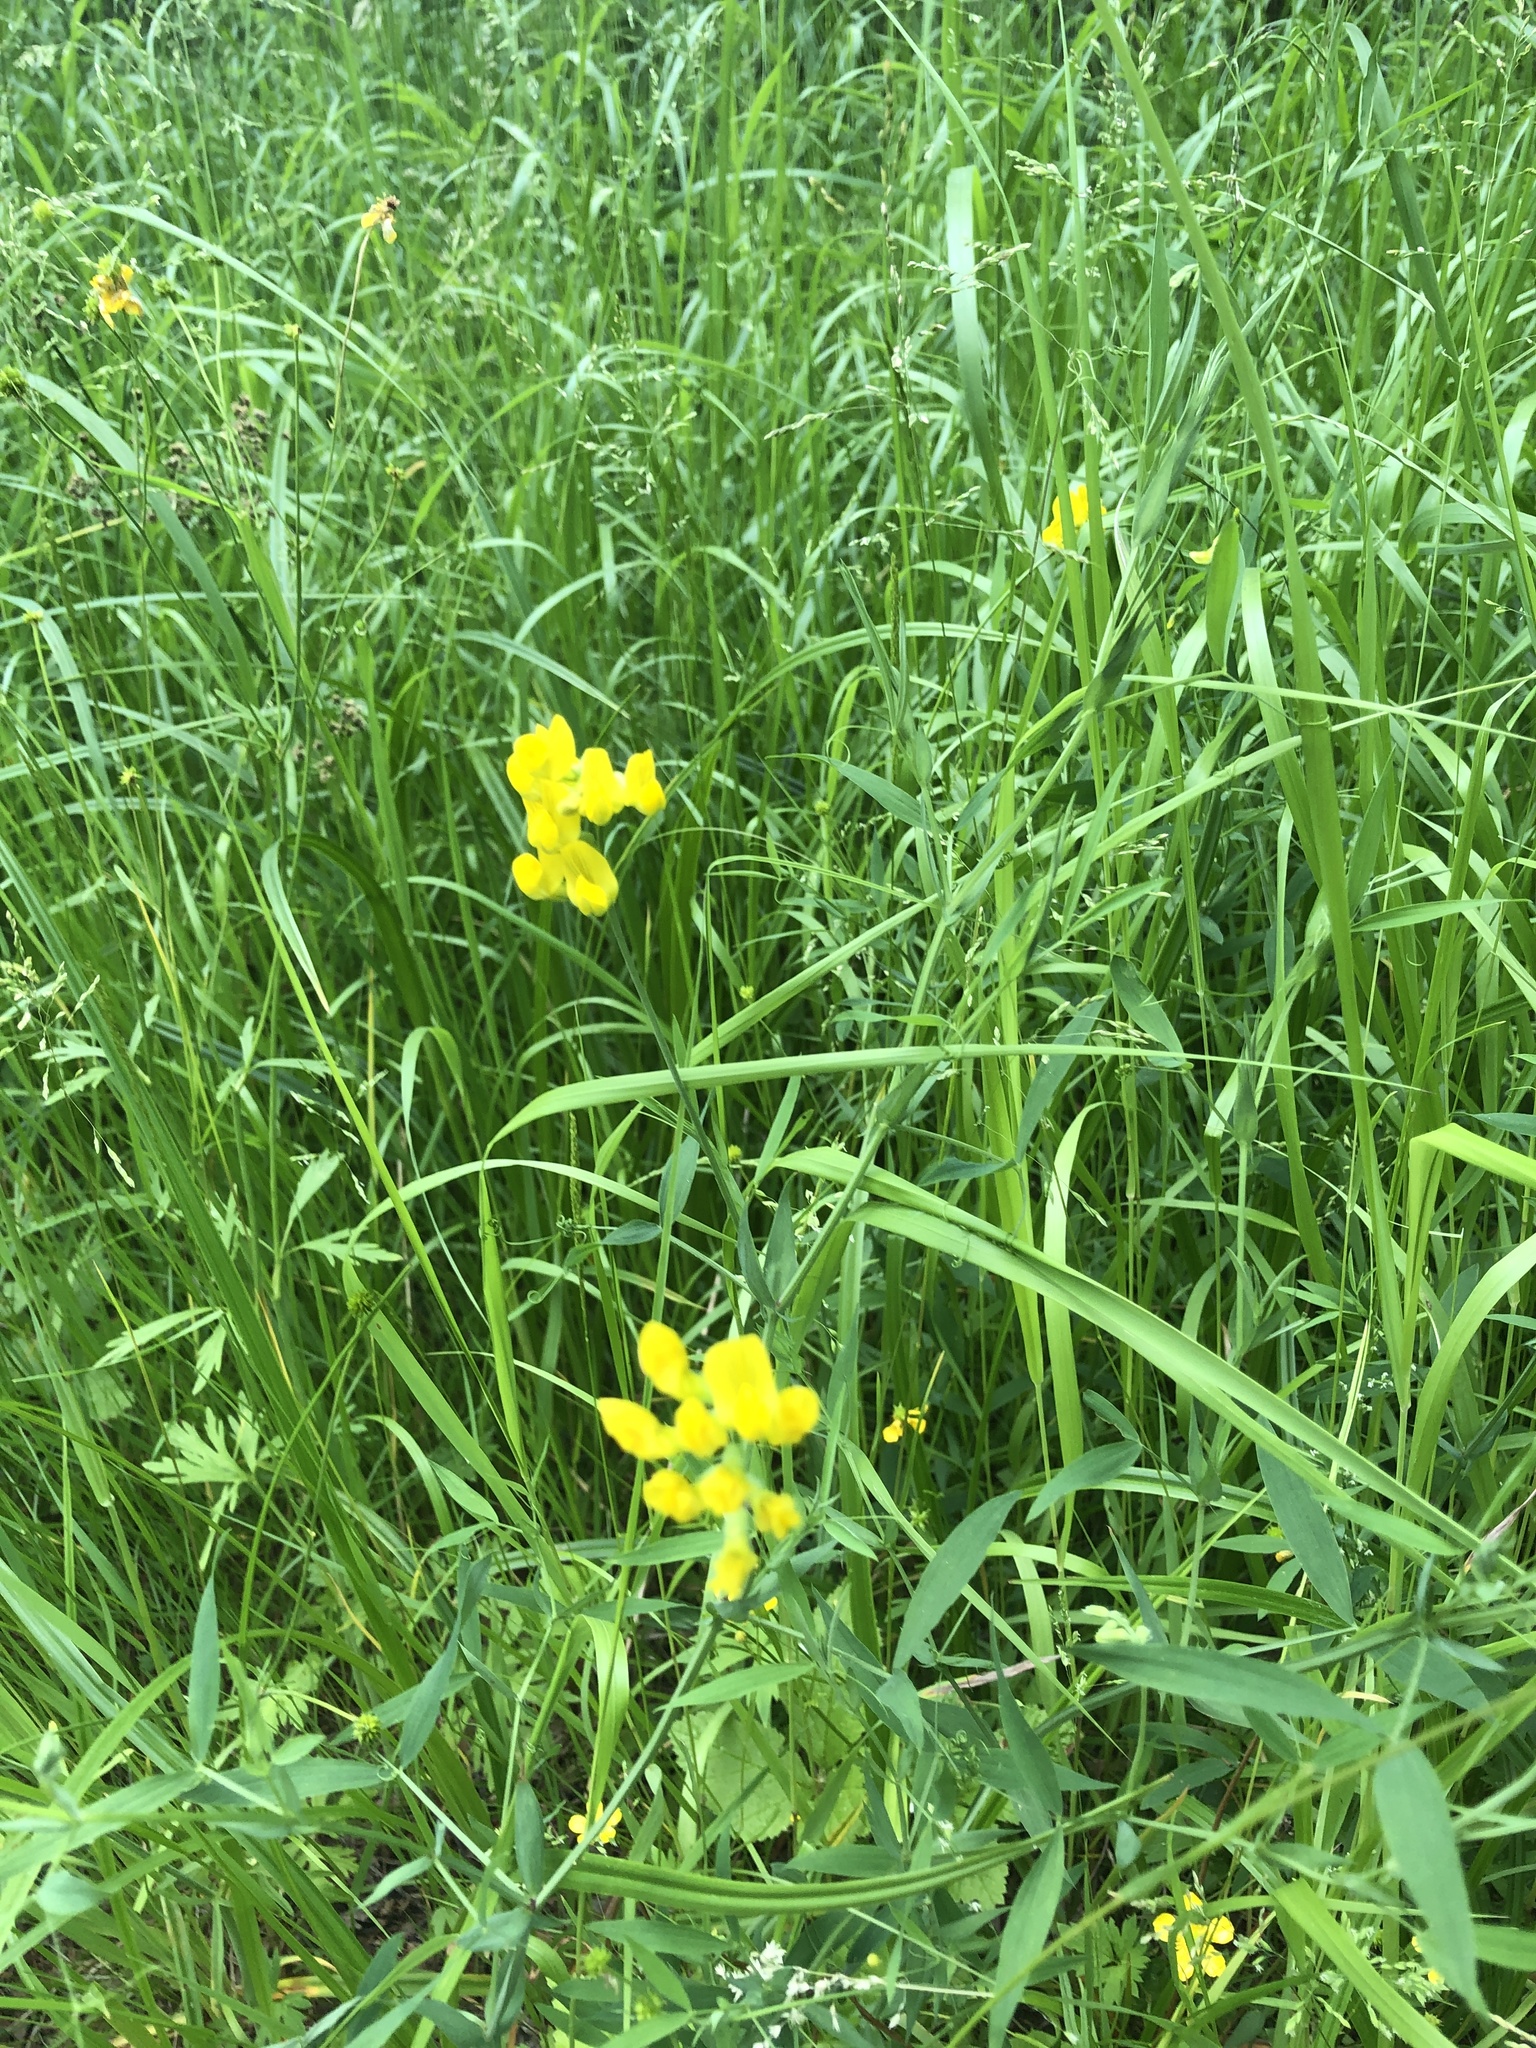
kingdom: Plantae
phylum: Tracheophyta
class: Magnoliopsida
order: Fabales
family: Fabaceae
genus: Lathyrus
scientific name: Lathyrus pratensis
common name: Meadow vetchling
